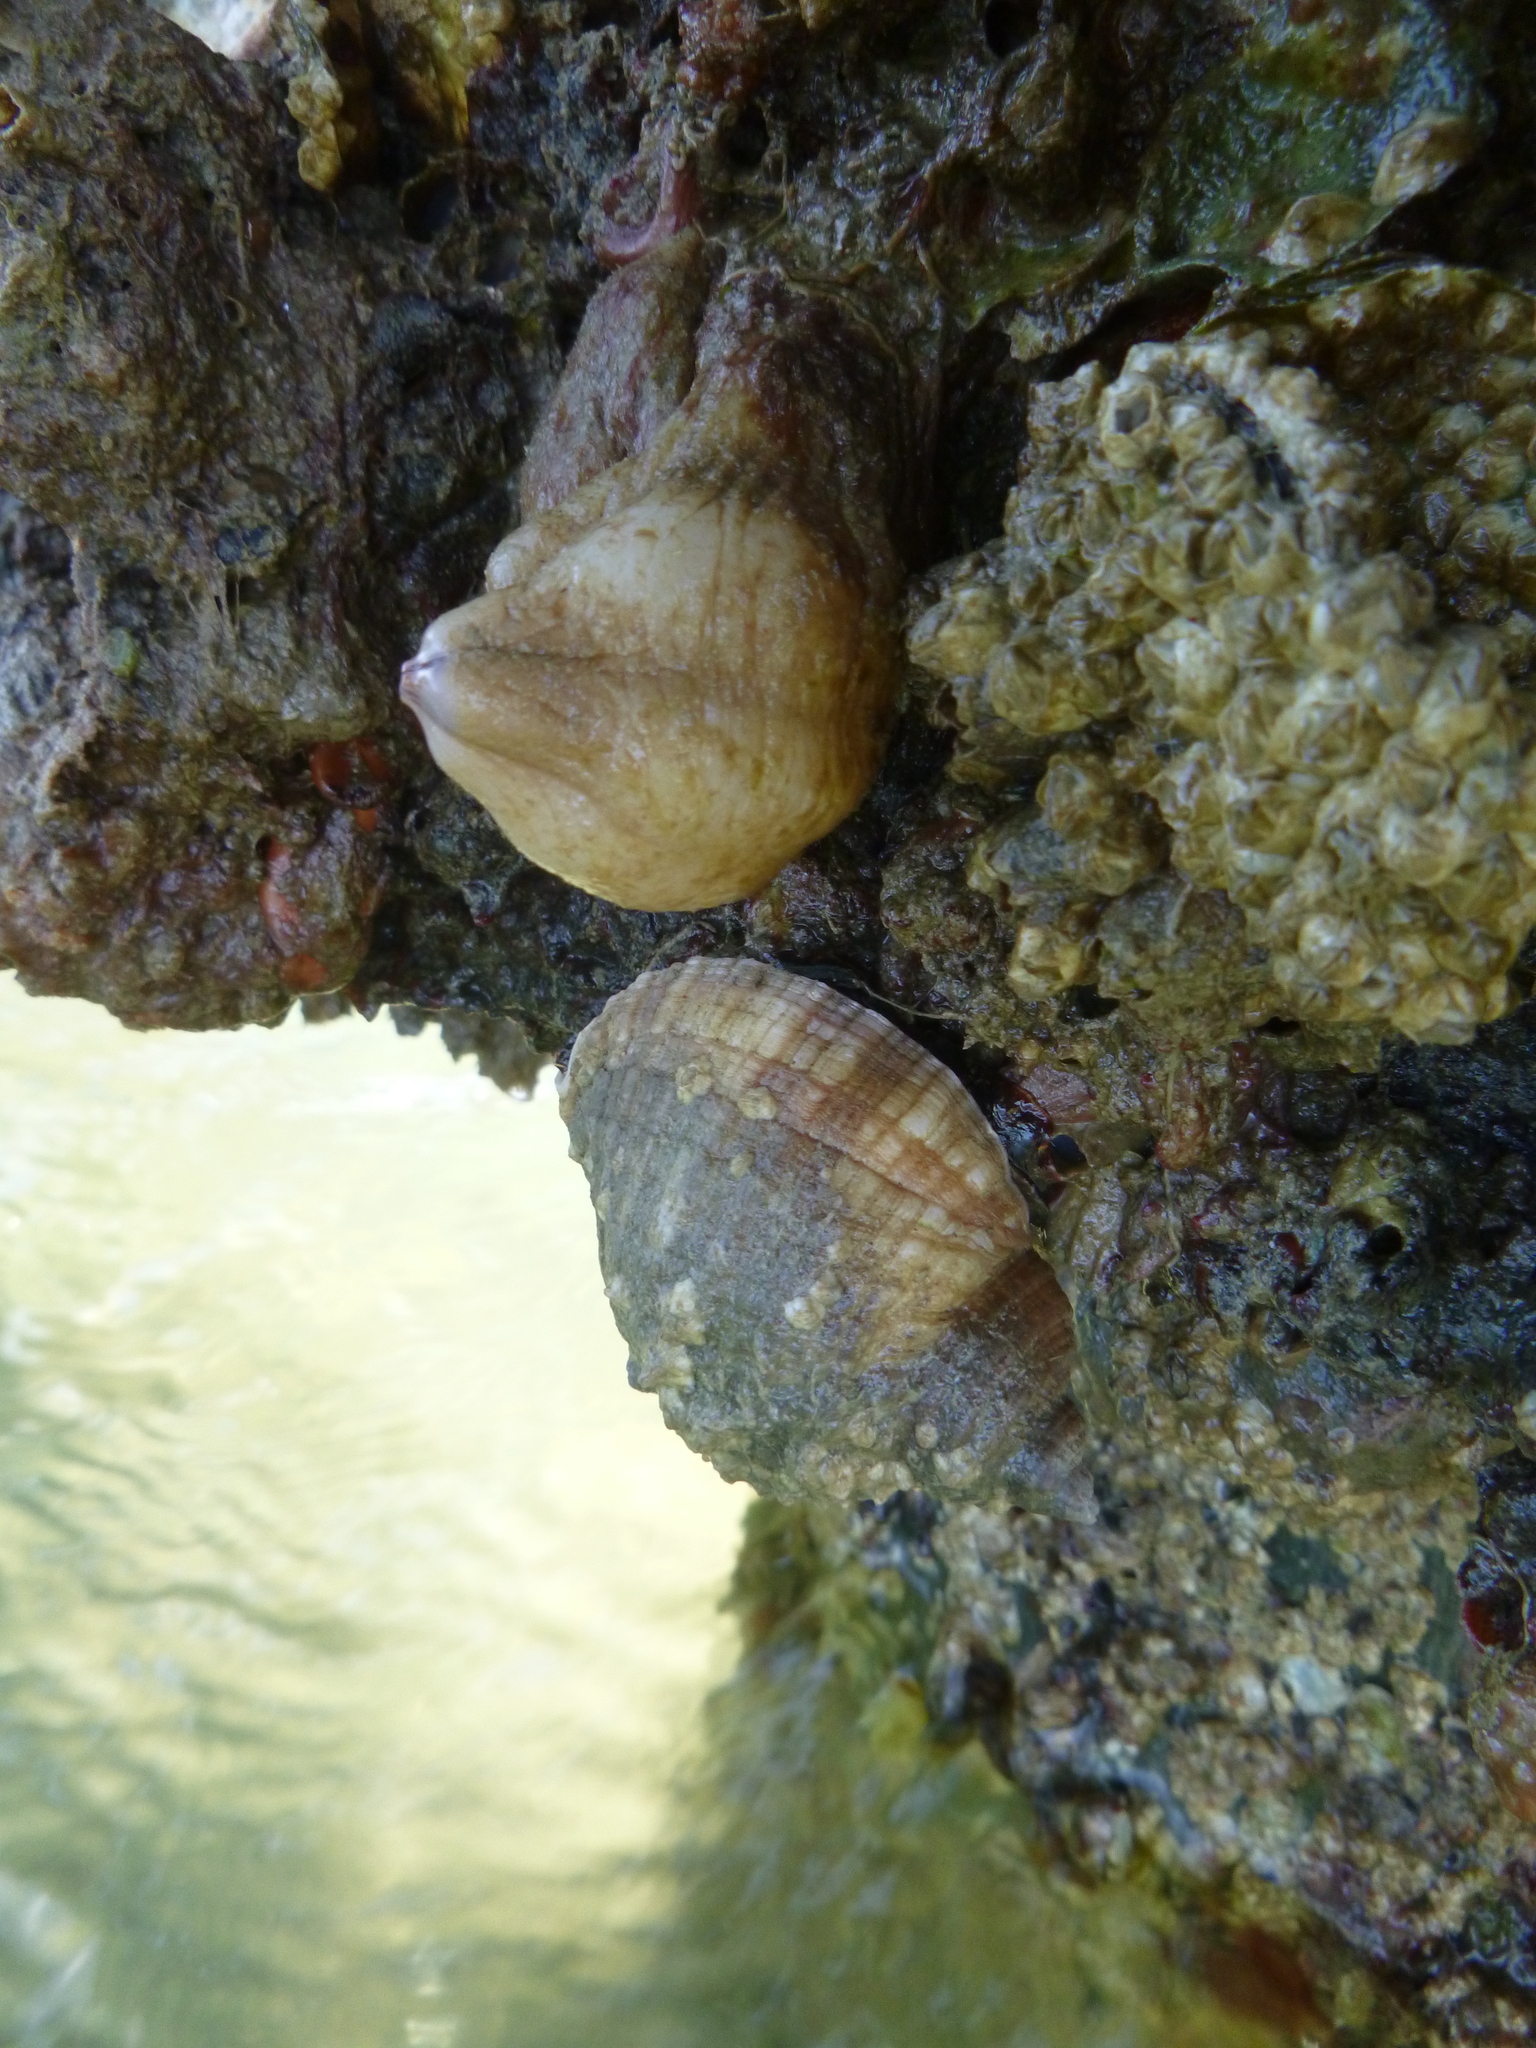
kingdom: Animalia
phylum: Mollusca
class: Gastropoda
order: Neogastropoda
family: Muricidae
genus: Dicathais
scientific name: Dicathais orbita
